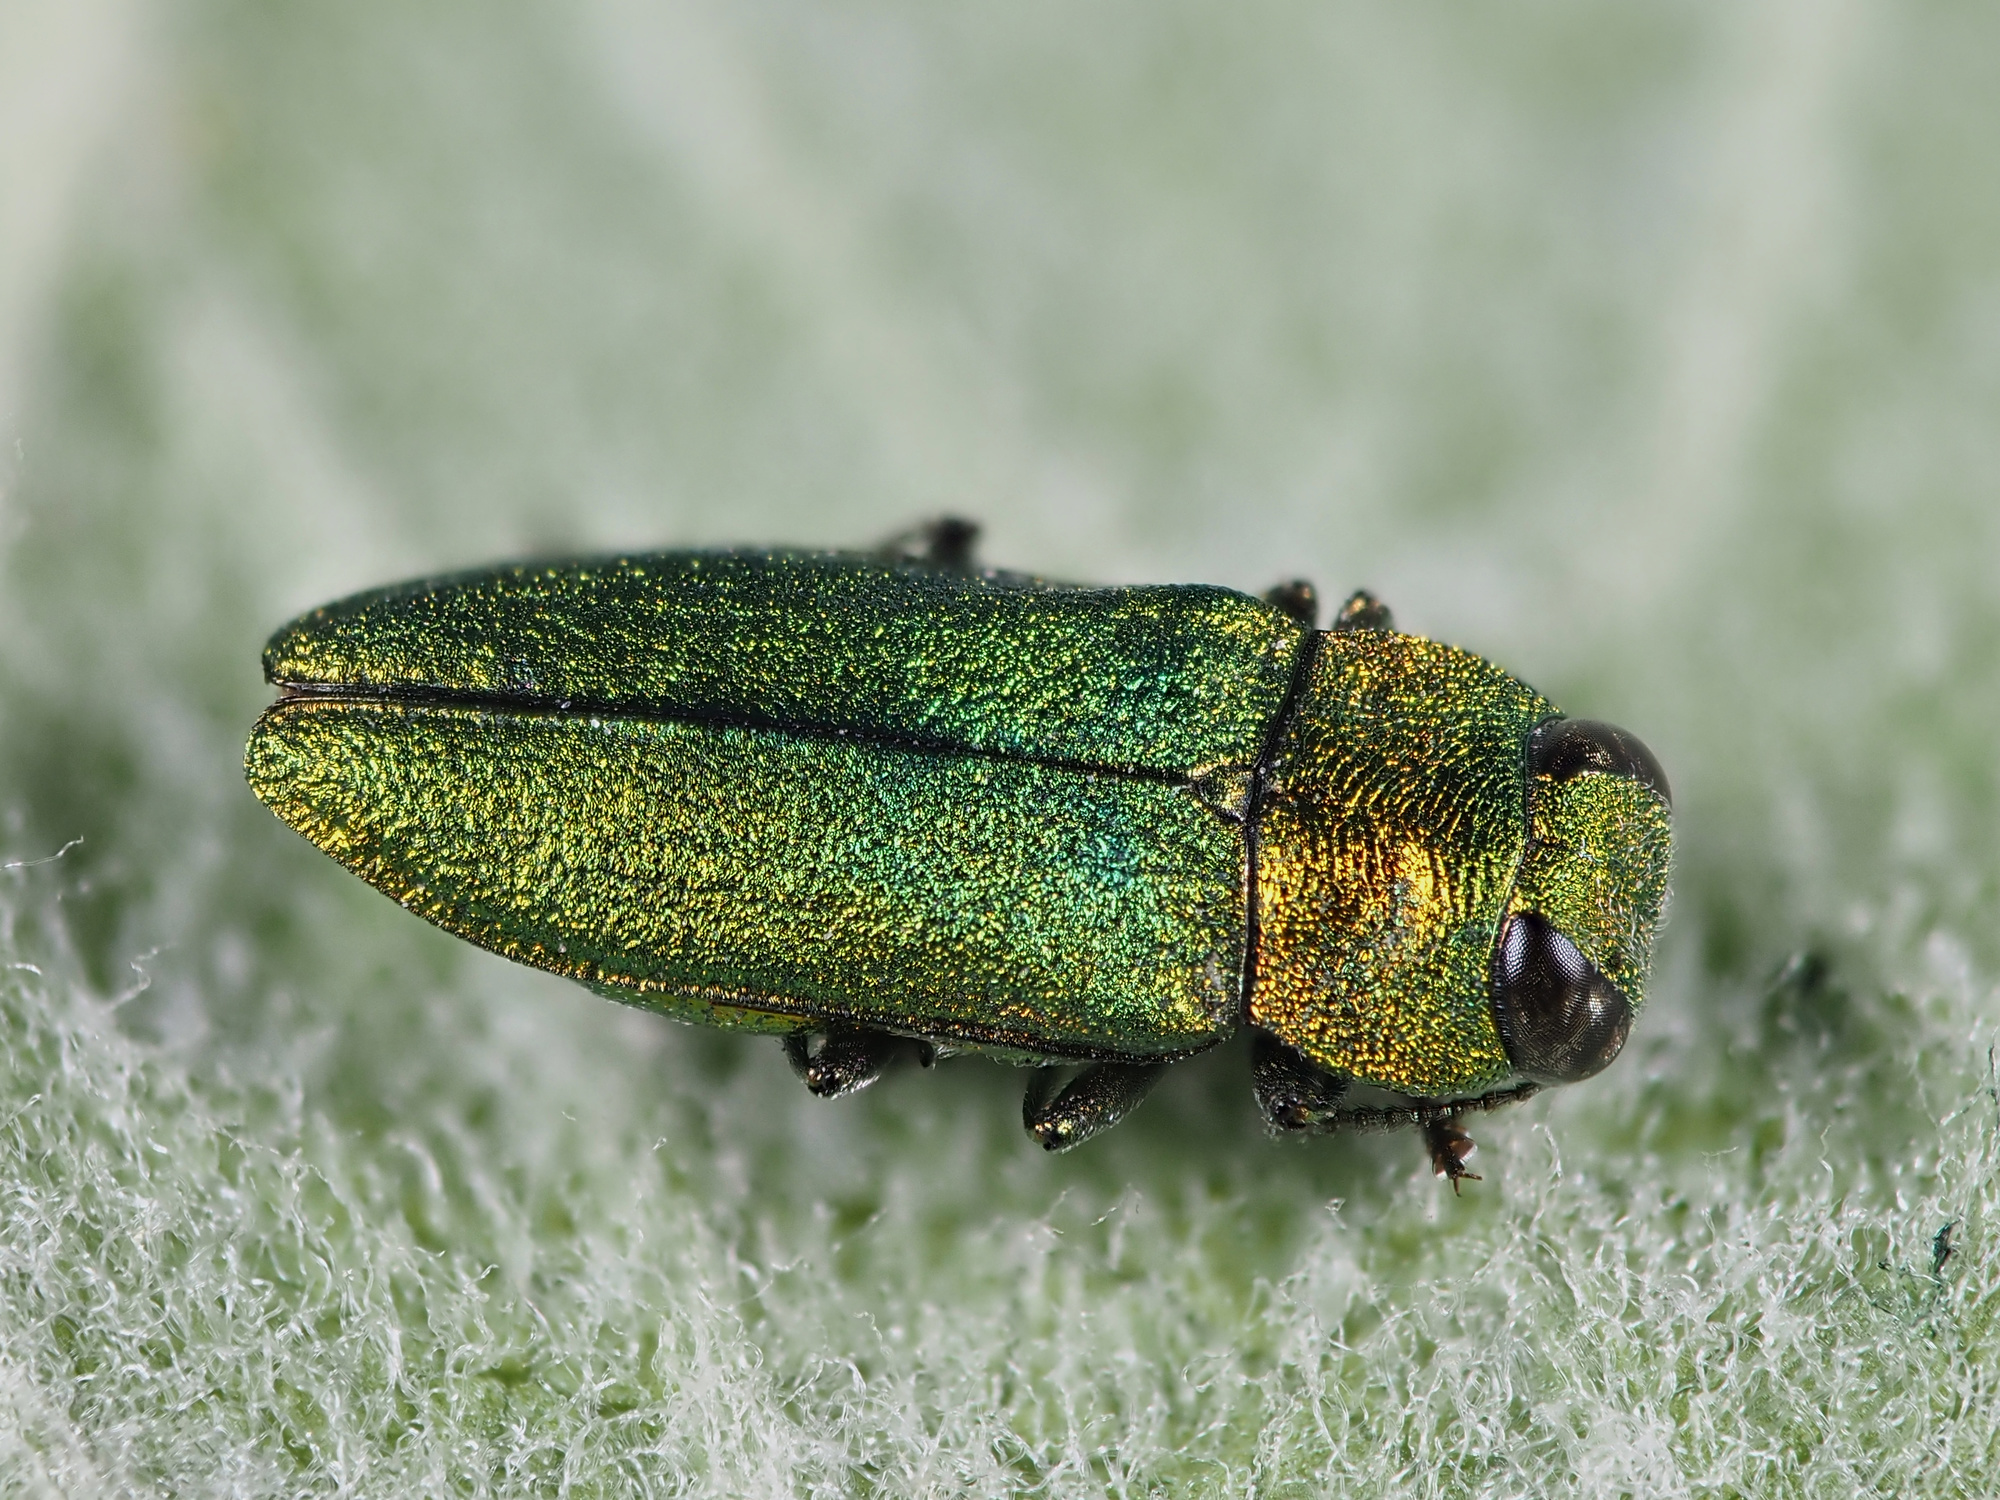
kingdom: Animalia
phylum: Arthropoda
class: Insecta
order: Coleoptera
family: Buprestidae
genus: Anthaxia
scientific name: Anthaxia nitidula
